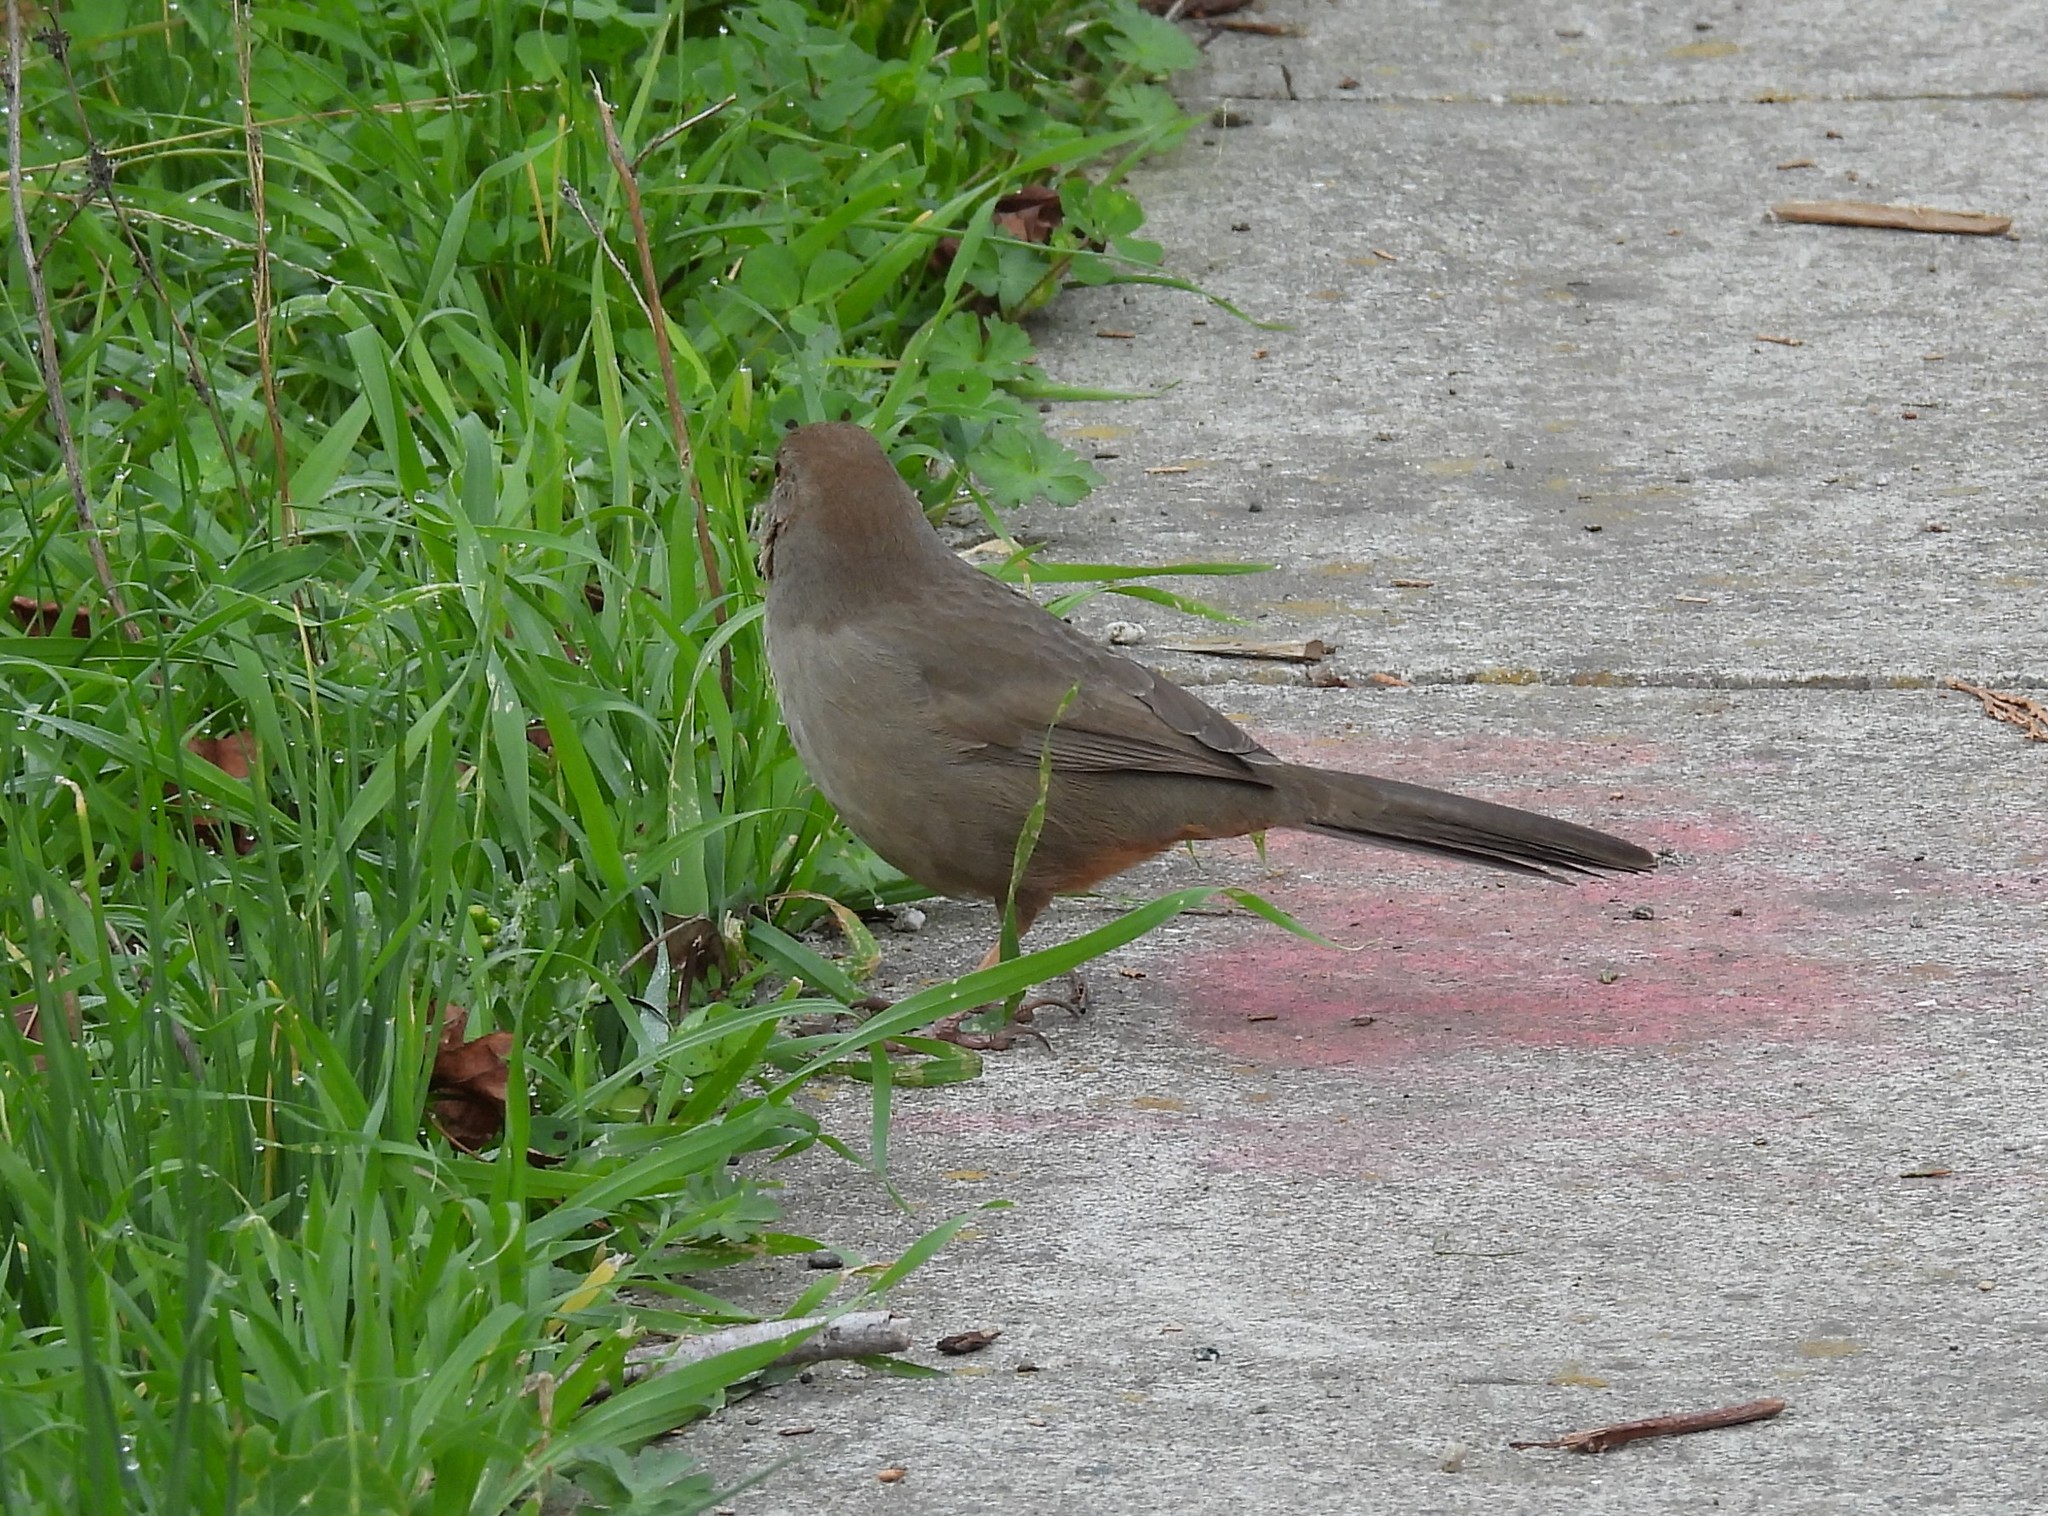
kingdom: Animalia
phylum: Chordata
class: Aves
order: Passeriformes
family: Passerellidae
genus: Melozone
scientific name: Melozone crissalis
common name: California towhee
